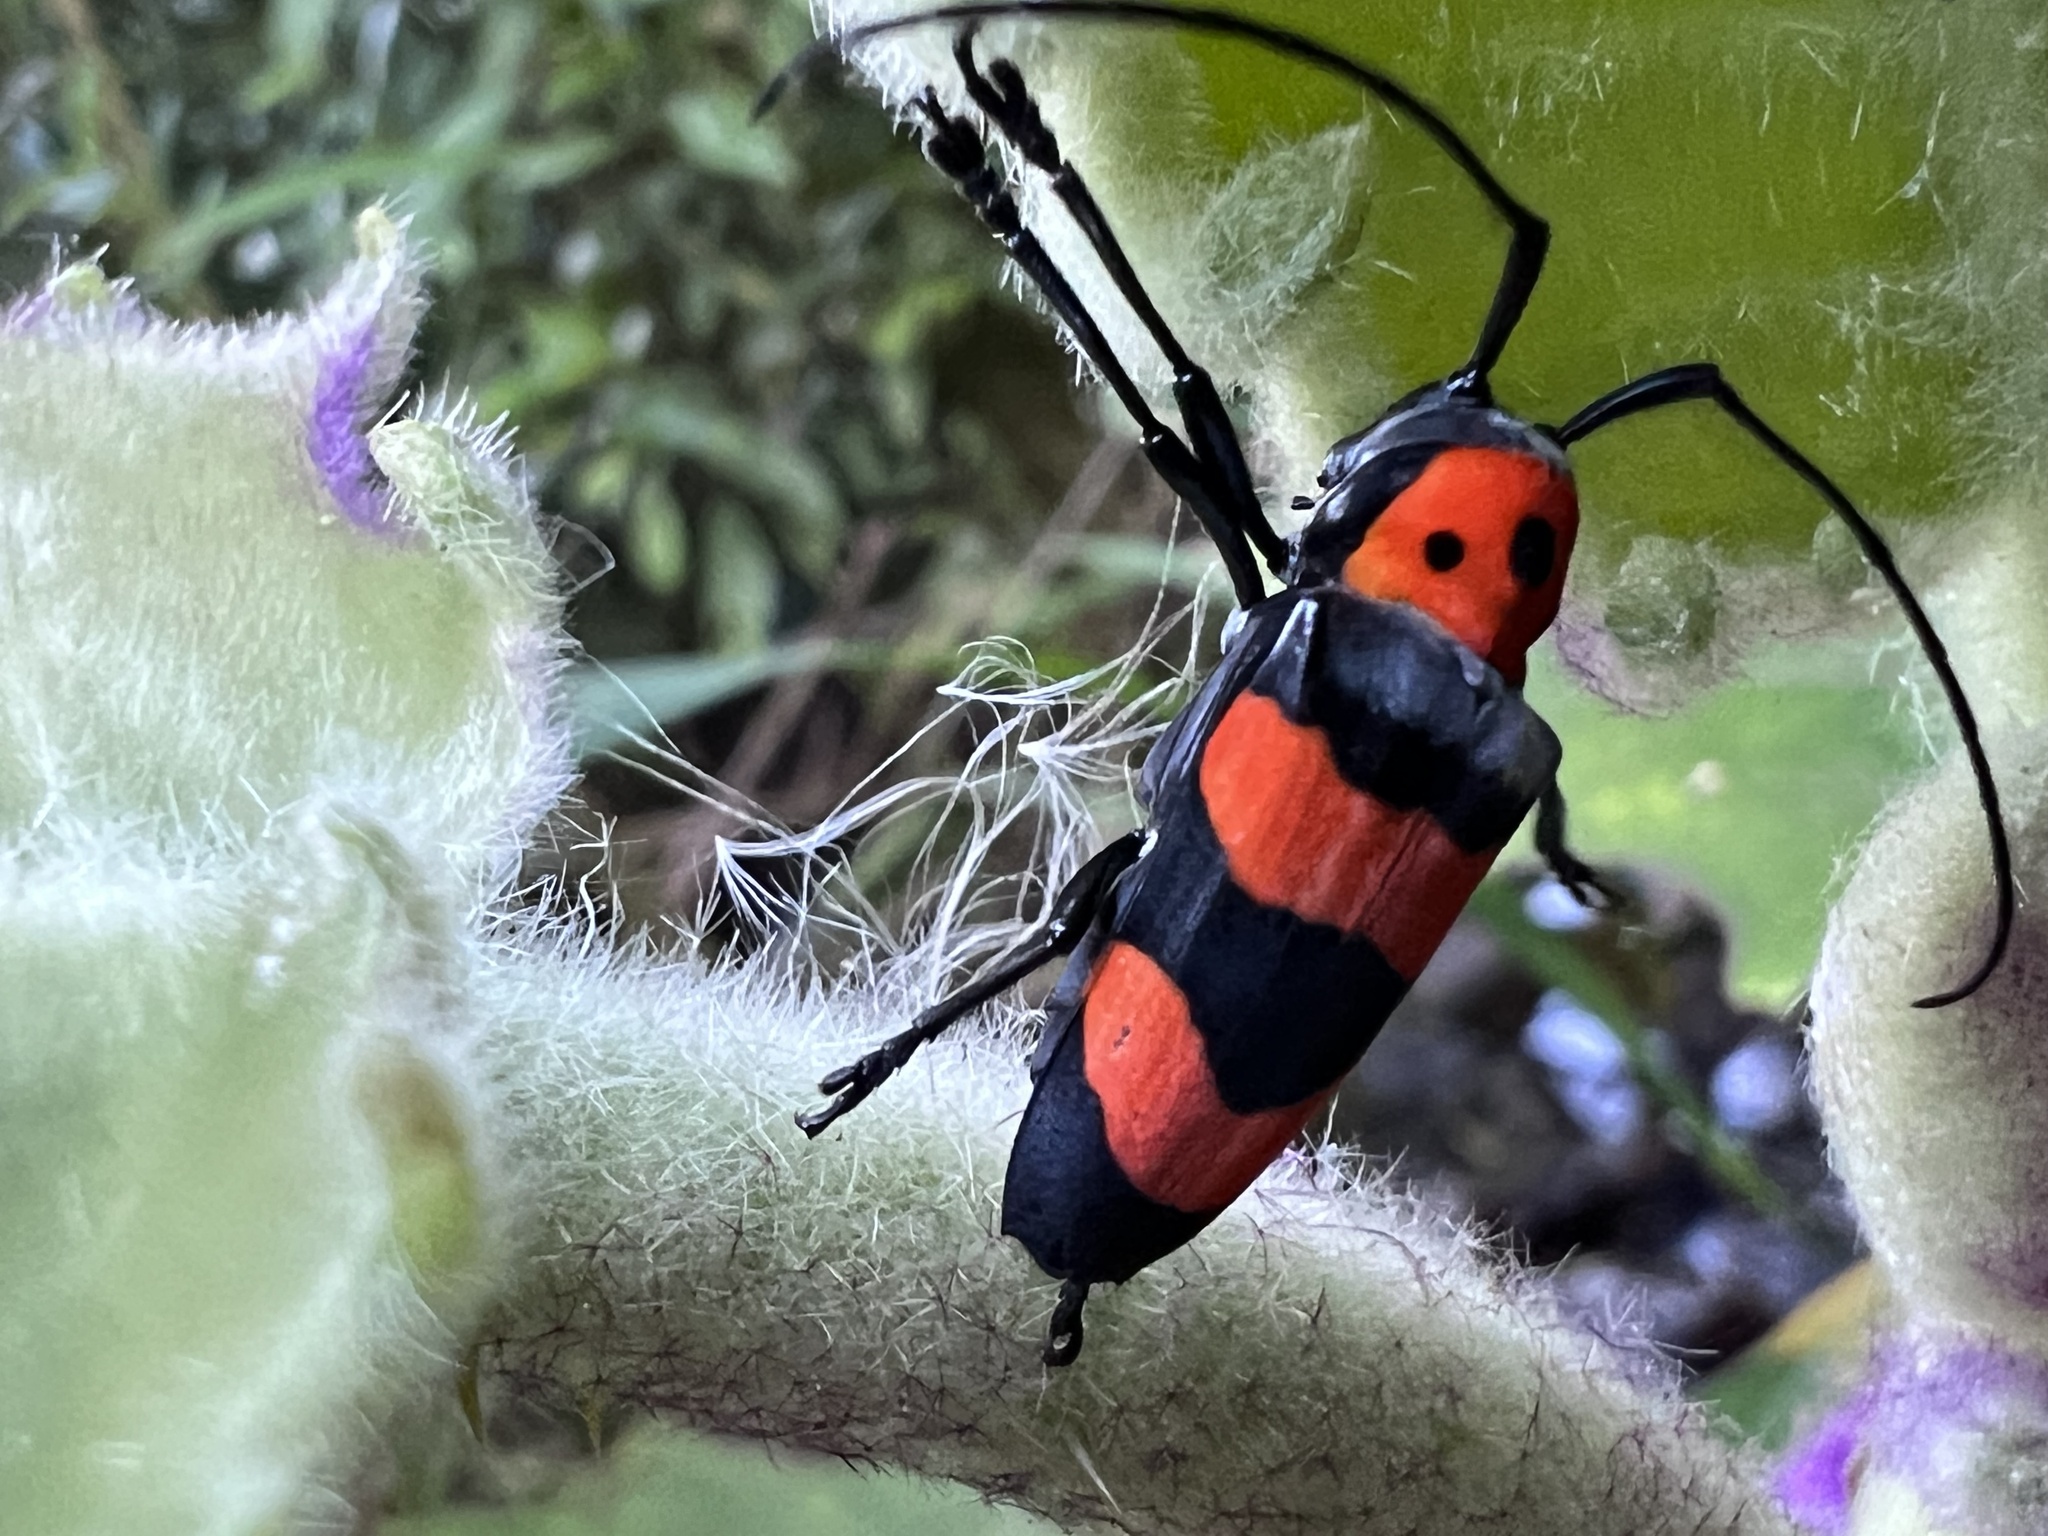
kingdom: Animalia
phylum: Arthropoda
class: Insecta
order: Coleoptera
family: Cerambycidae
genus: Oedudes
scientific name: Oedudes spectabilis
